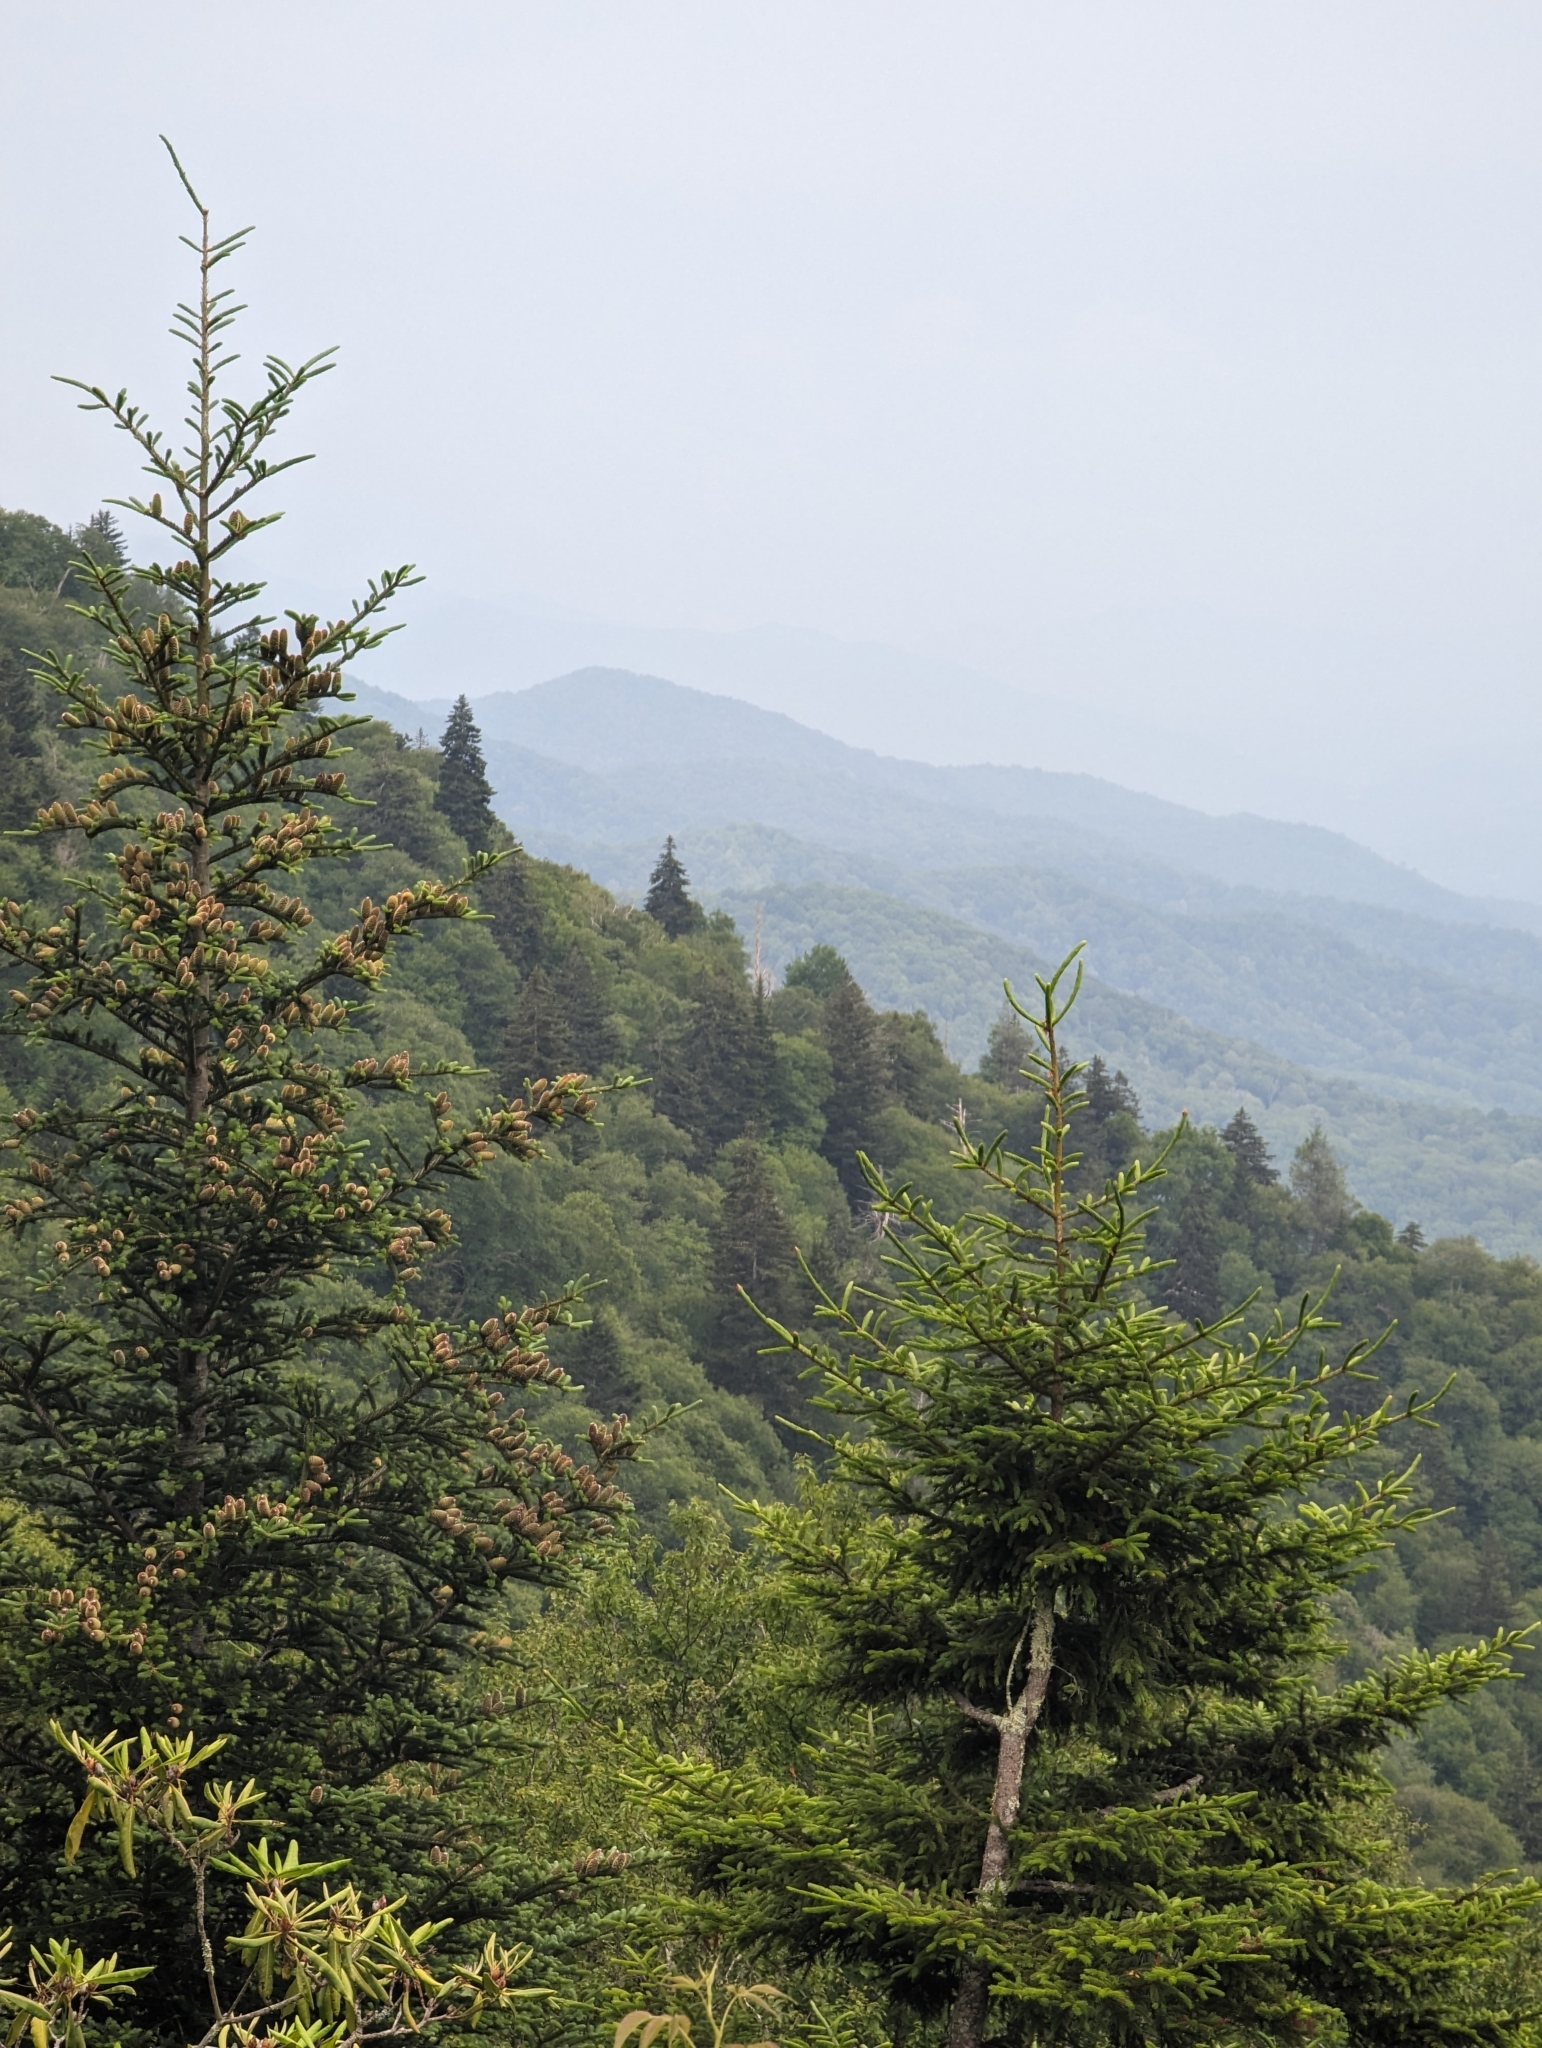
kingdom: Plantae
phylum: Tracheophyta
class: Pinopsida
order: Pinales
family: Pinaceae
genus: Abies
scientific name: Abies fraseri
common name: Fraser fir
